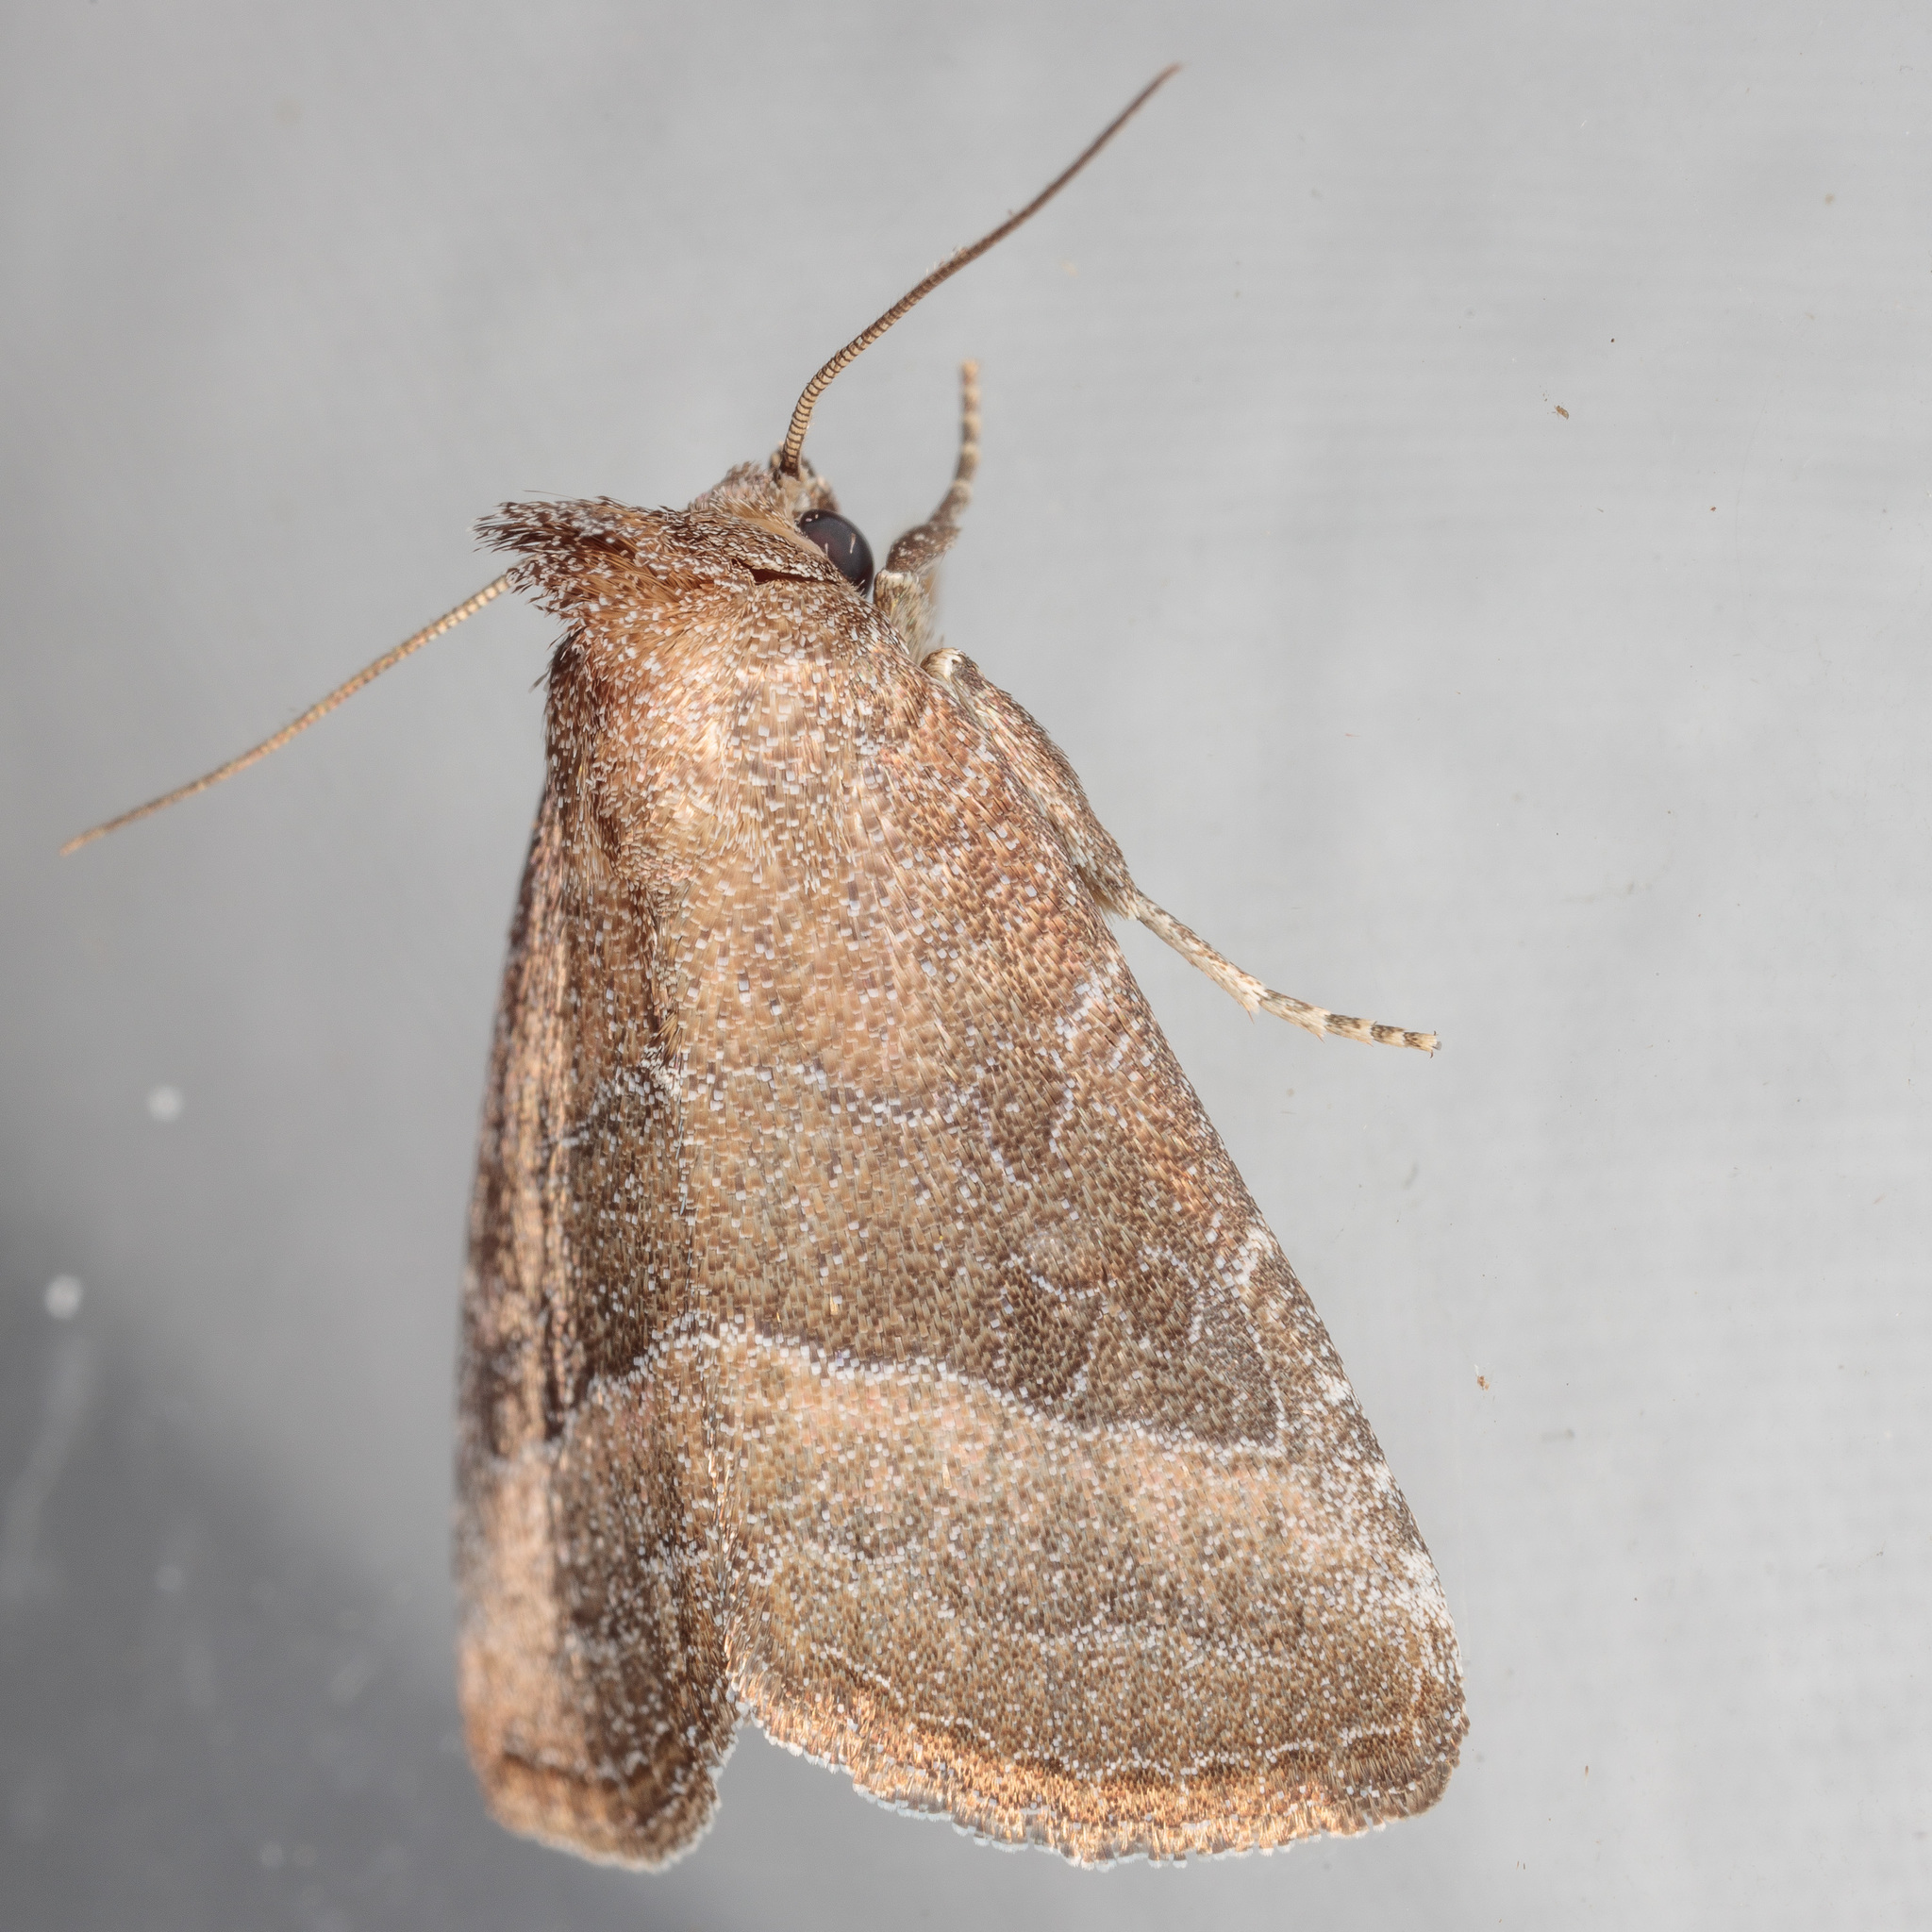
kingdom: Animalia
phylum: Arthropoda
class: Insecta
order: Lepidoptera
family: Noctuidae
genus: Ogdoconta
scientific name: Ogdoconta cinereola
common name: Common pinkband
